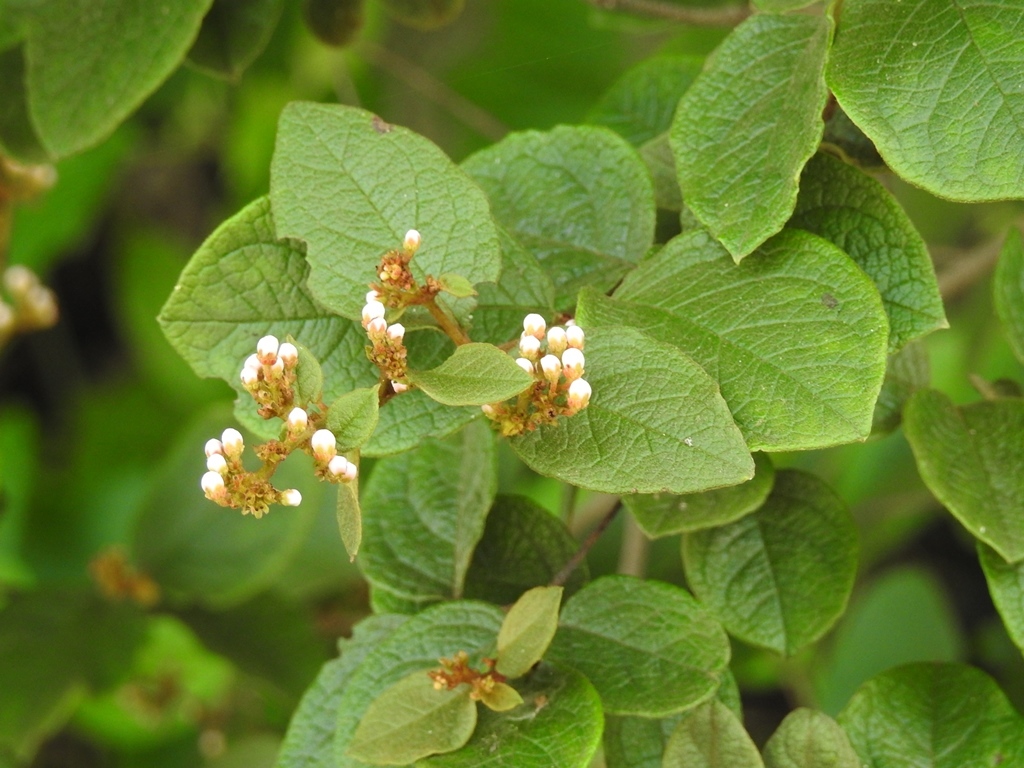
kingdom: Plantae
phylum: Tracheophyta
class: Magnoliopsida
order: Malpighiales
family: Malpighiaceae
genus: Heteropterys
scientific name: Heteropterys brachiata
